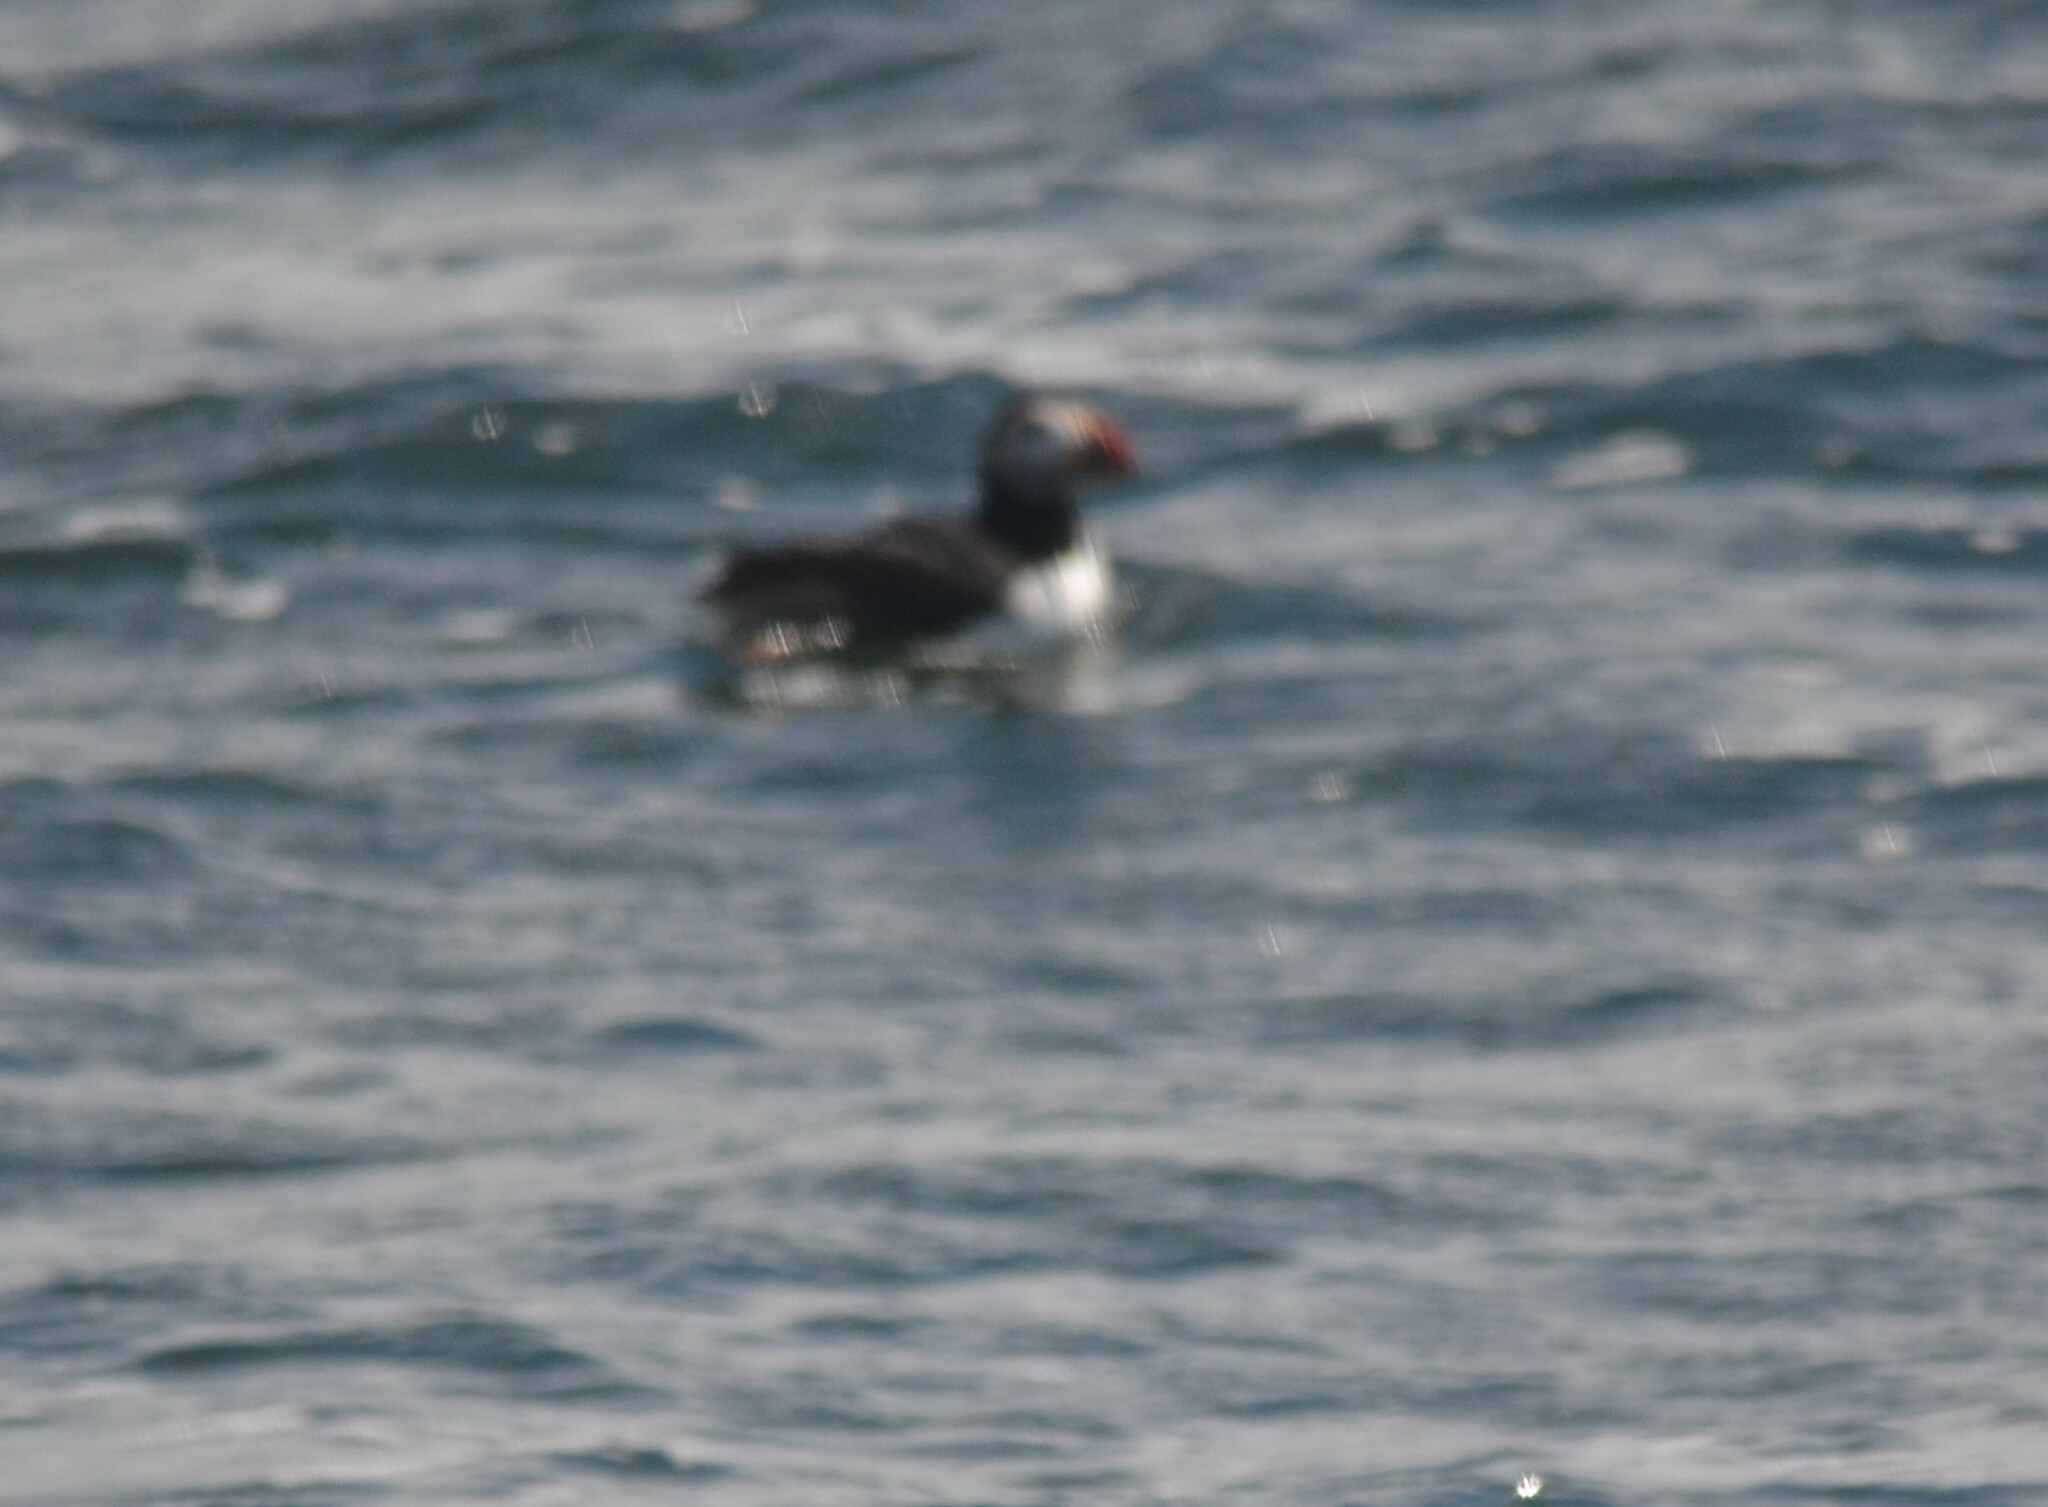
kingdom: Animalia
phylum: Chordata
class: Aves
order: Charadriiformes
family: Alcidae
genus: Fratercula
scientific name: Fratercula arctica
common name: Atlantic puffin
